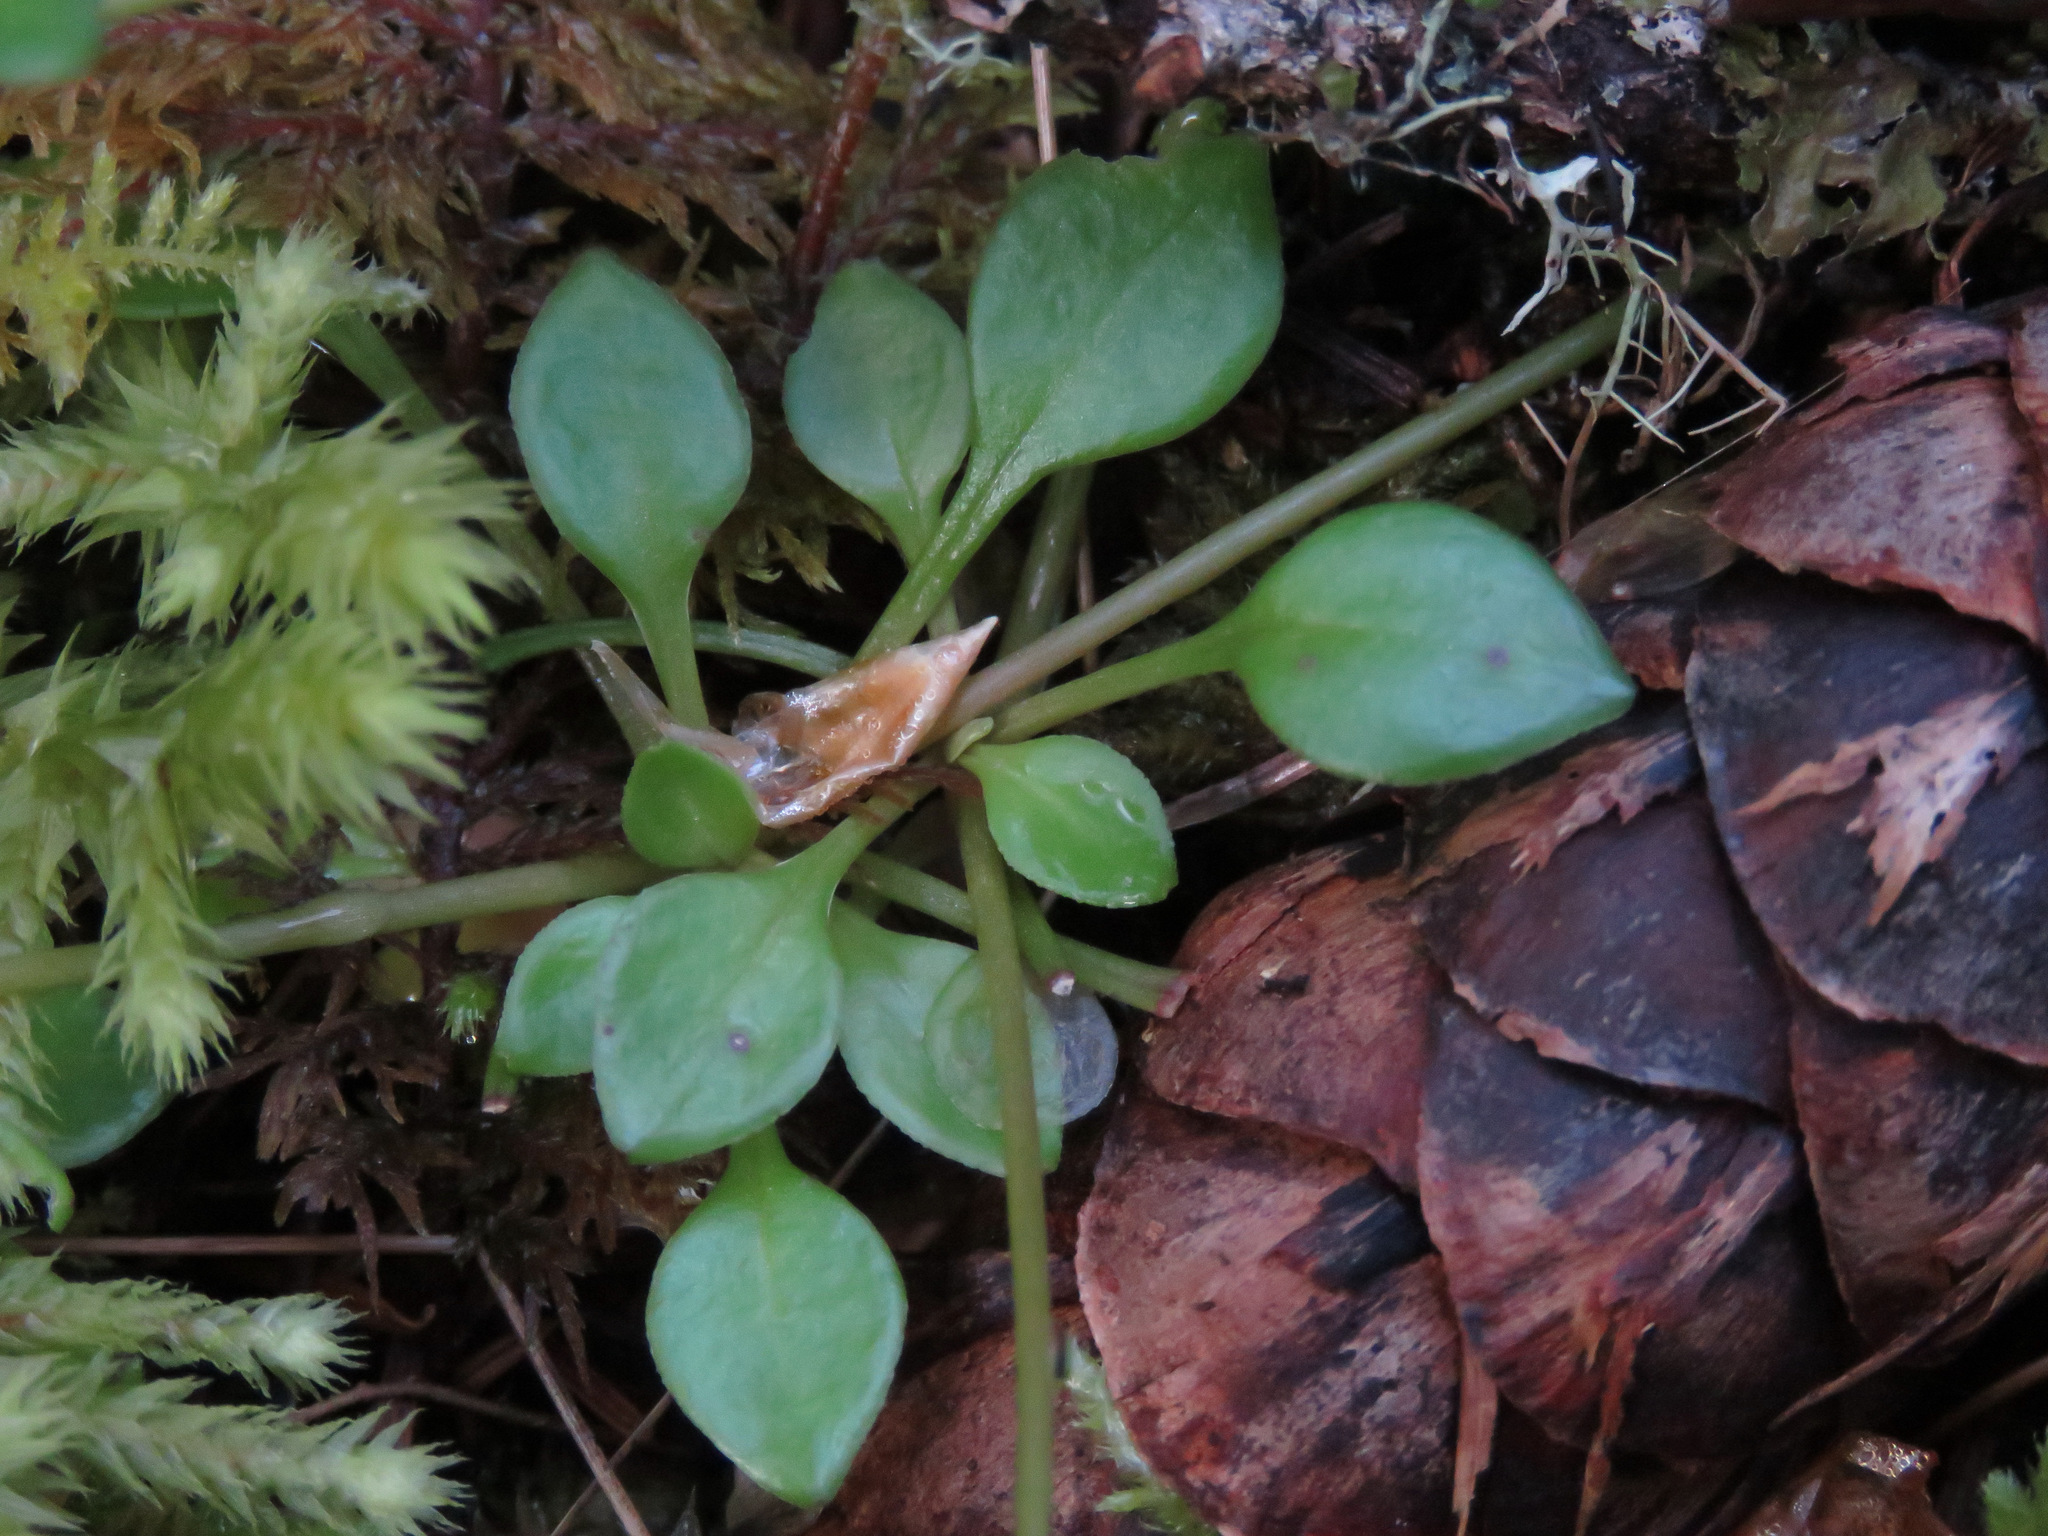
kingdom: Plantae
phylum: Tracheophyta
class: Magnoliopsida
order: Caryophyllales
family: Montiaceae
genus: Montia
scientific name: Montia parvifolia
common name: Small-leaved blinks
